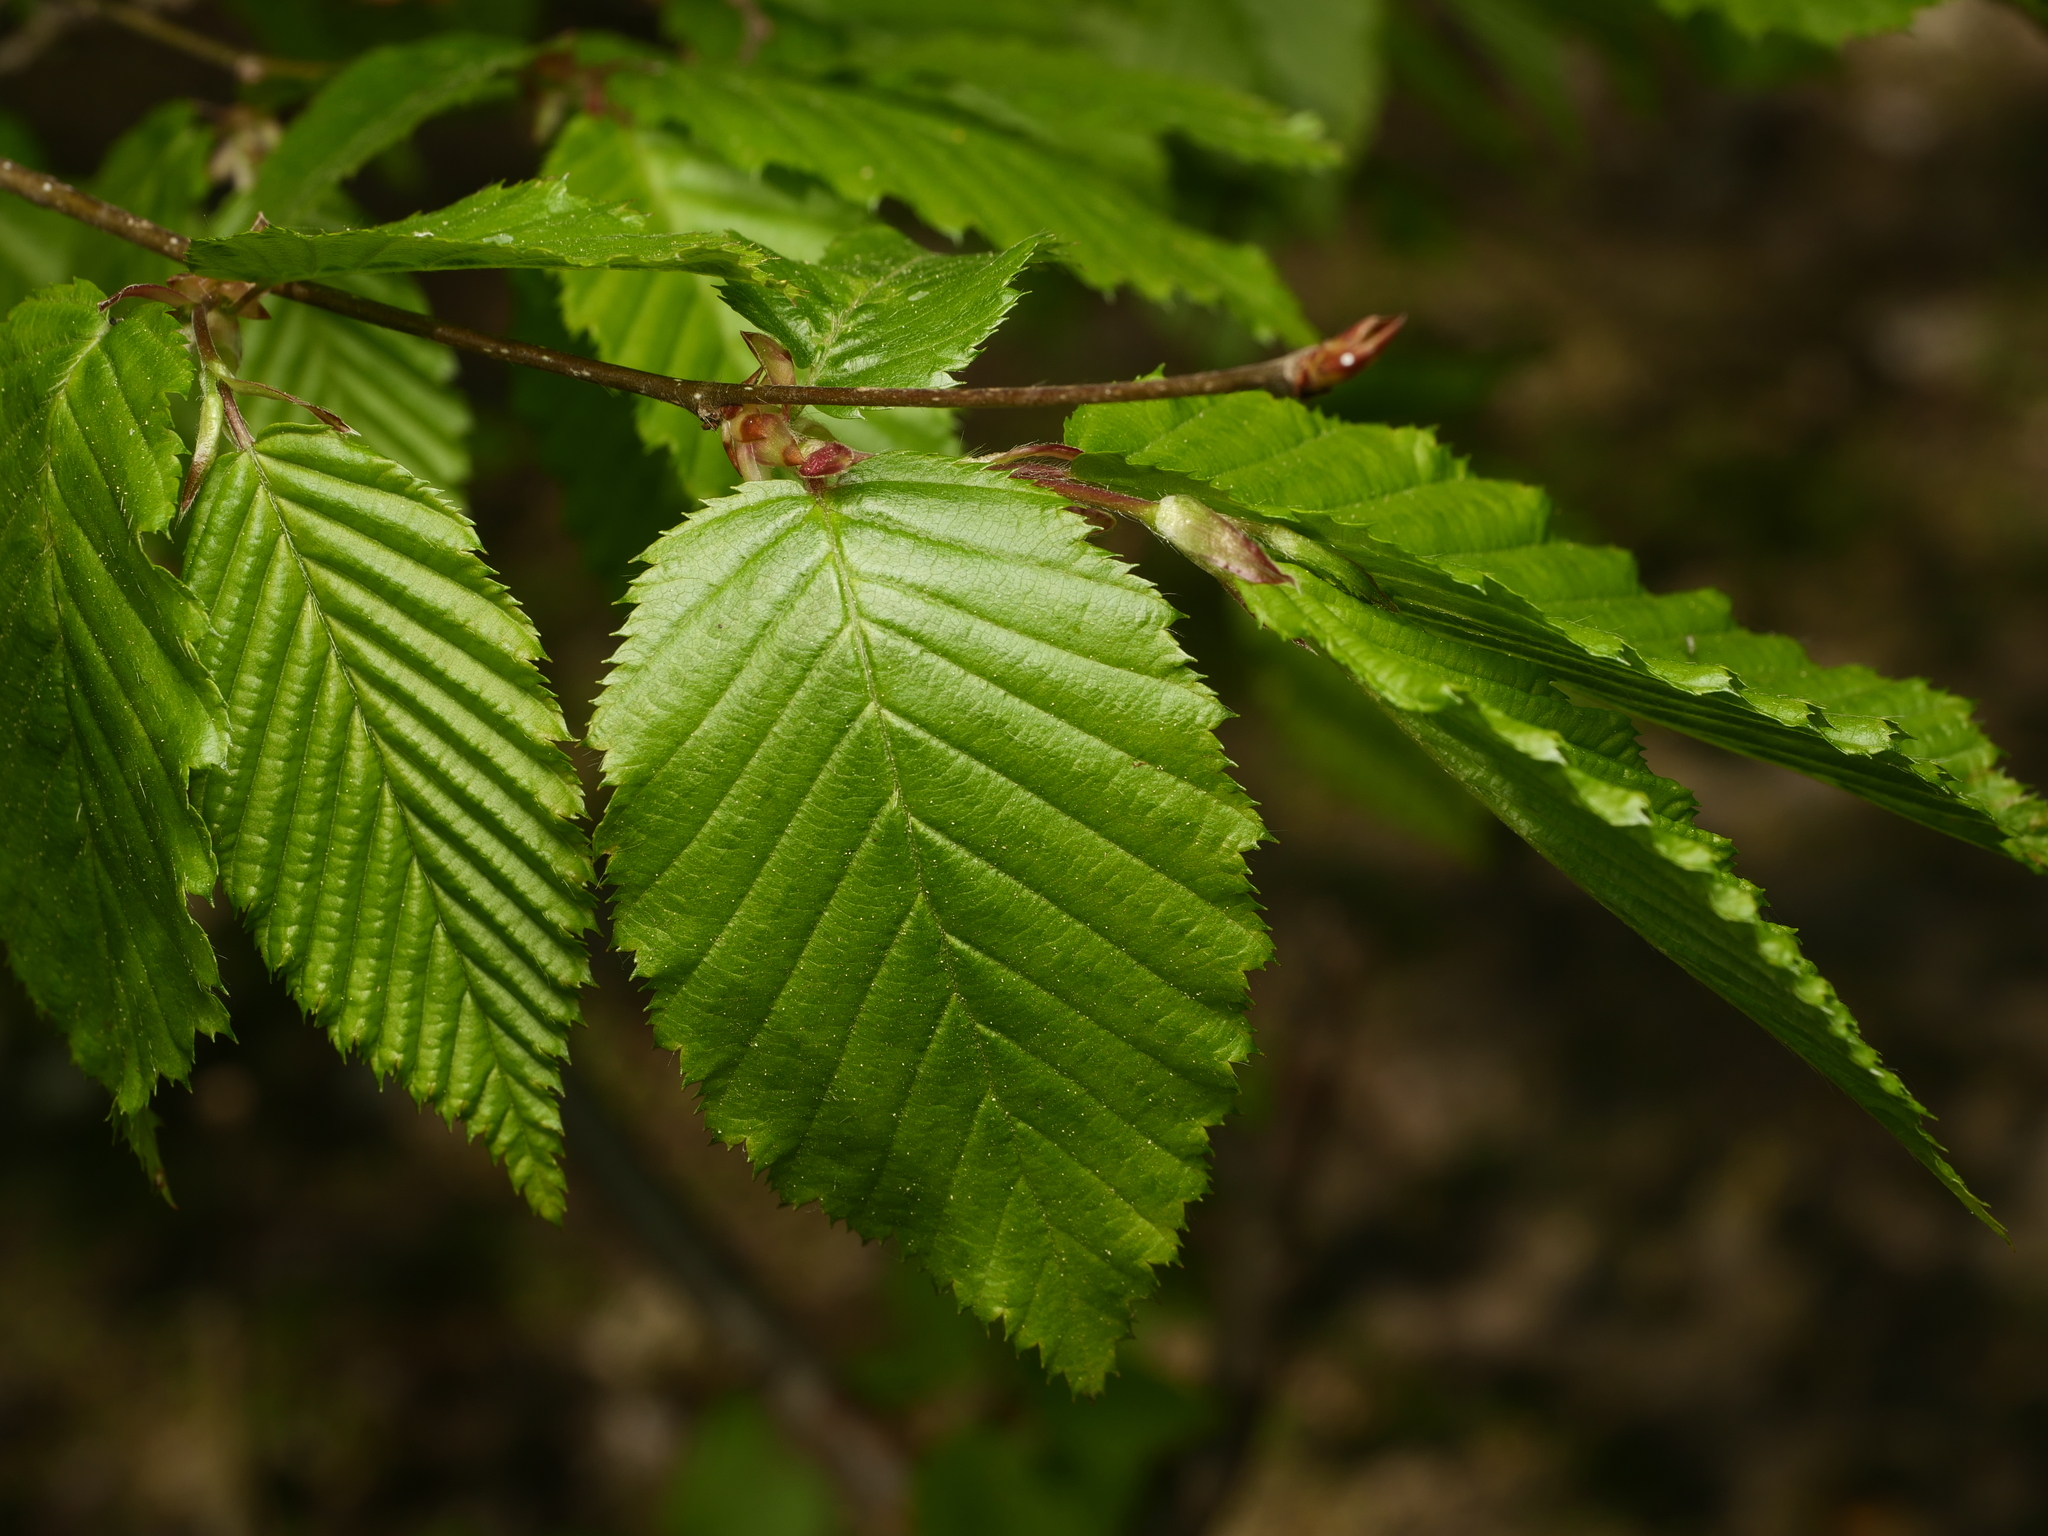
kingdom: Plantae
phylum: Tracheophyta
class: Magnoliopsida
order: Fagales
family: Betulaceae
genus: Carpinus
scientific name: Carpinus betulus
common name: Hornbeam
